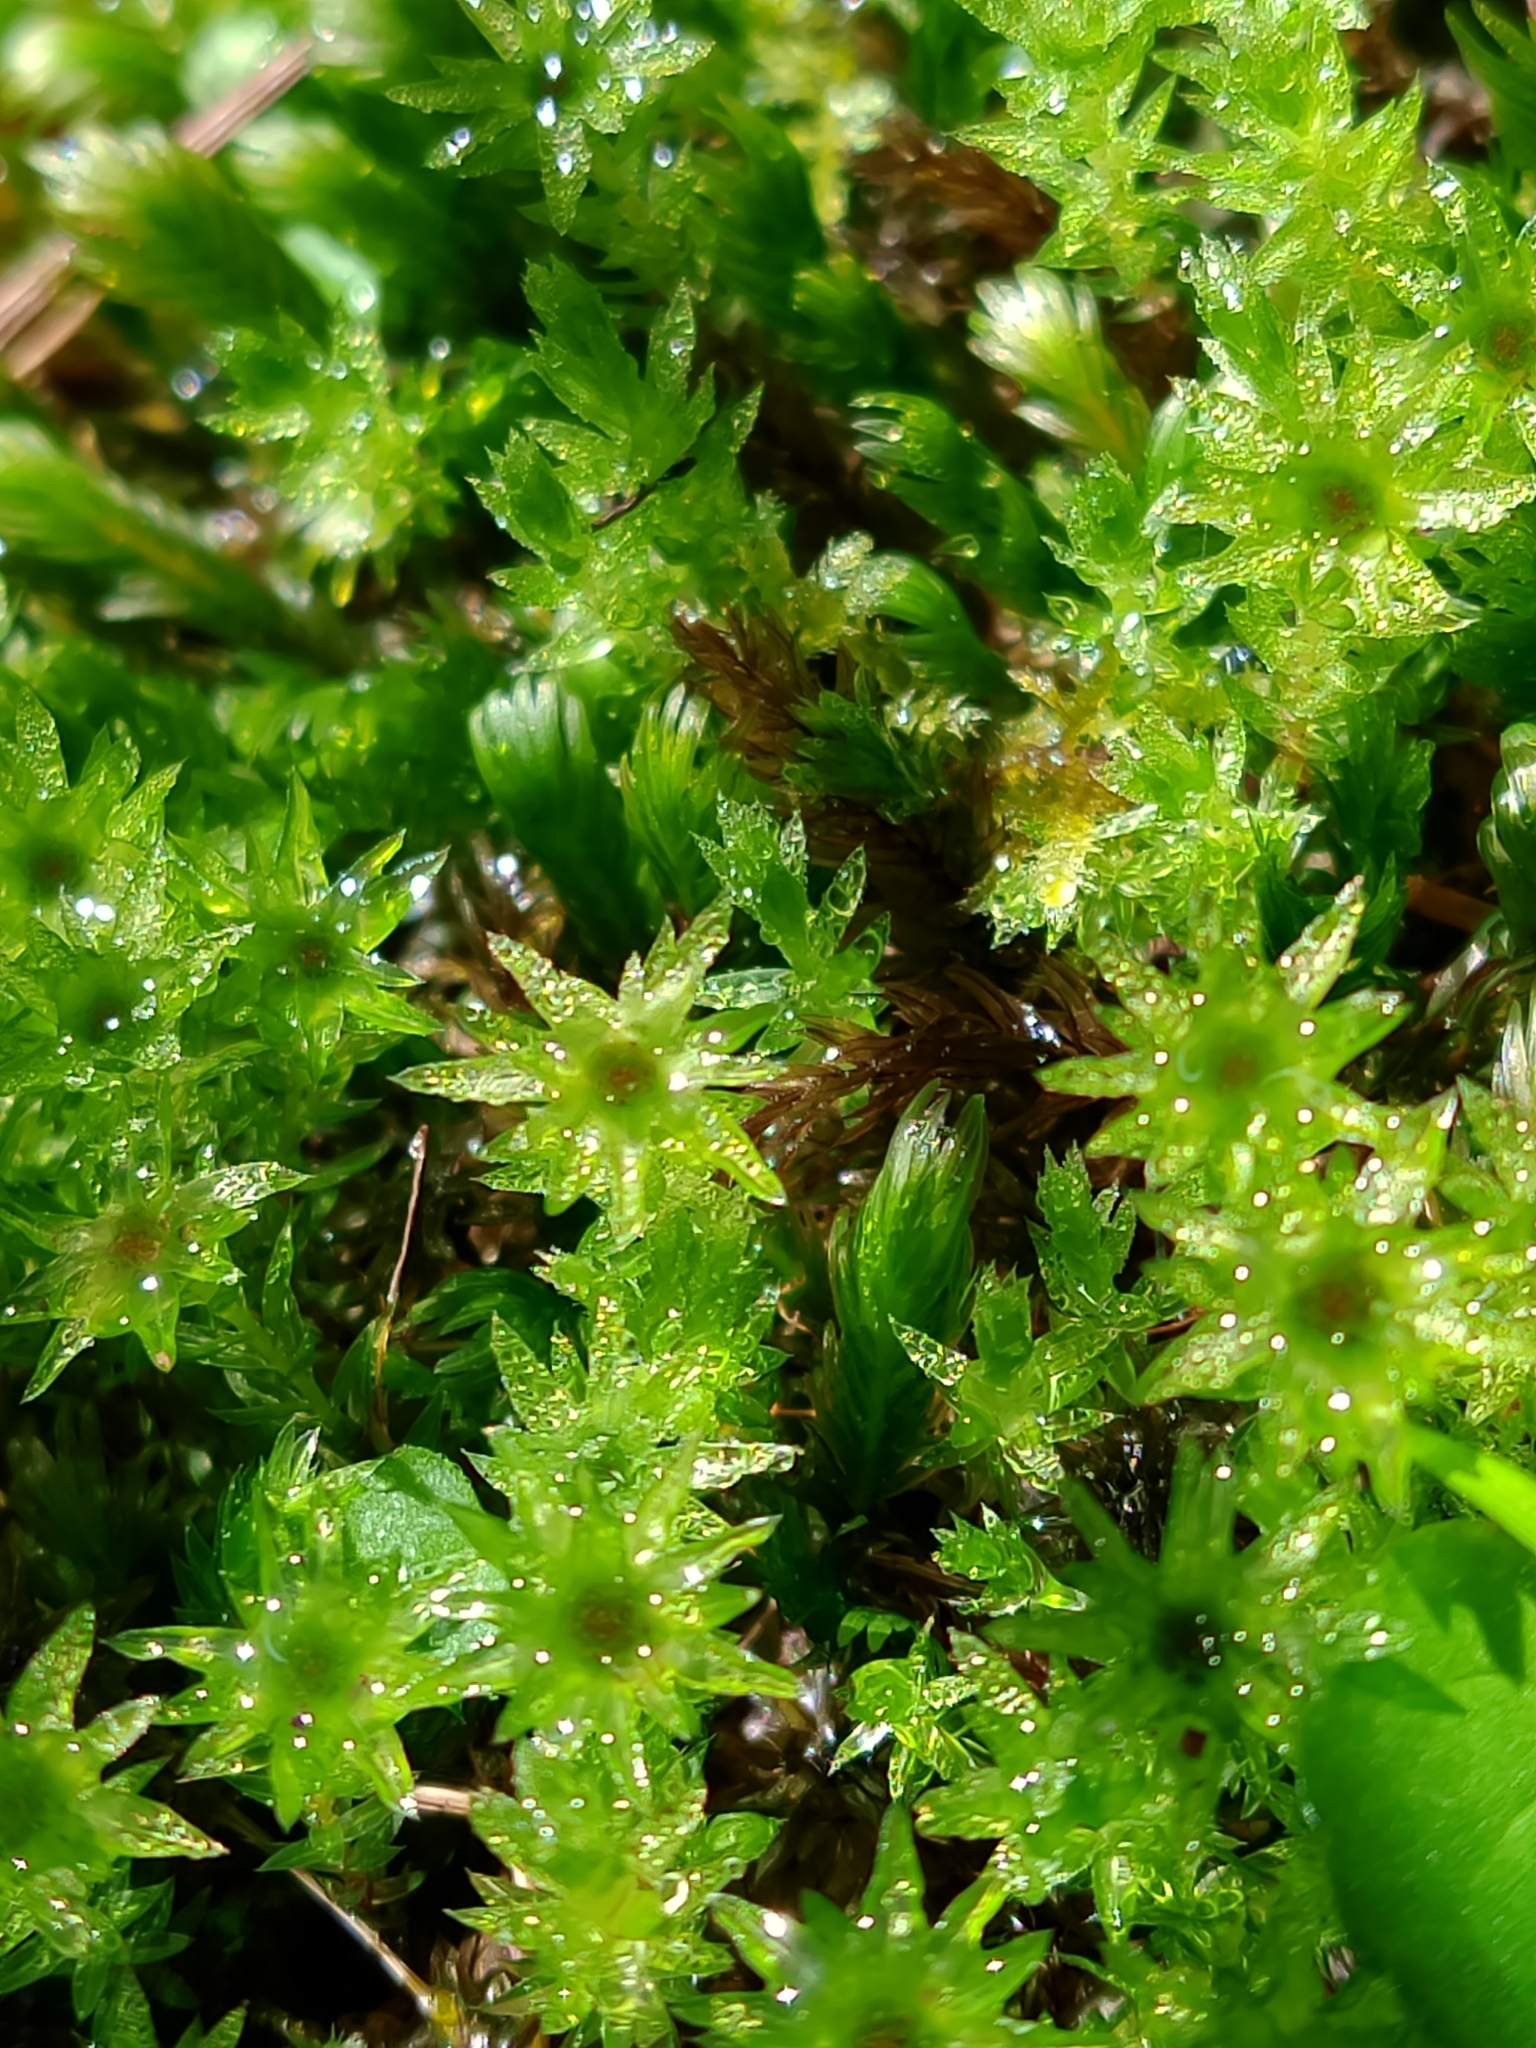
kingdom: Plantae
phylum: Bryophyta
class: Bryopsida
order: Bryales
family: Mniaceae
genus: Mnium
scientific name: Mnium hornum
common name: Swan's-neck leafy moss
